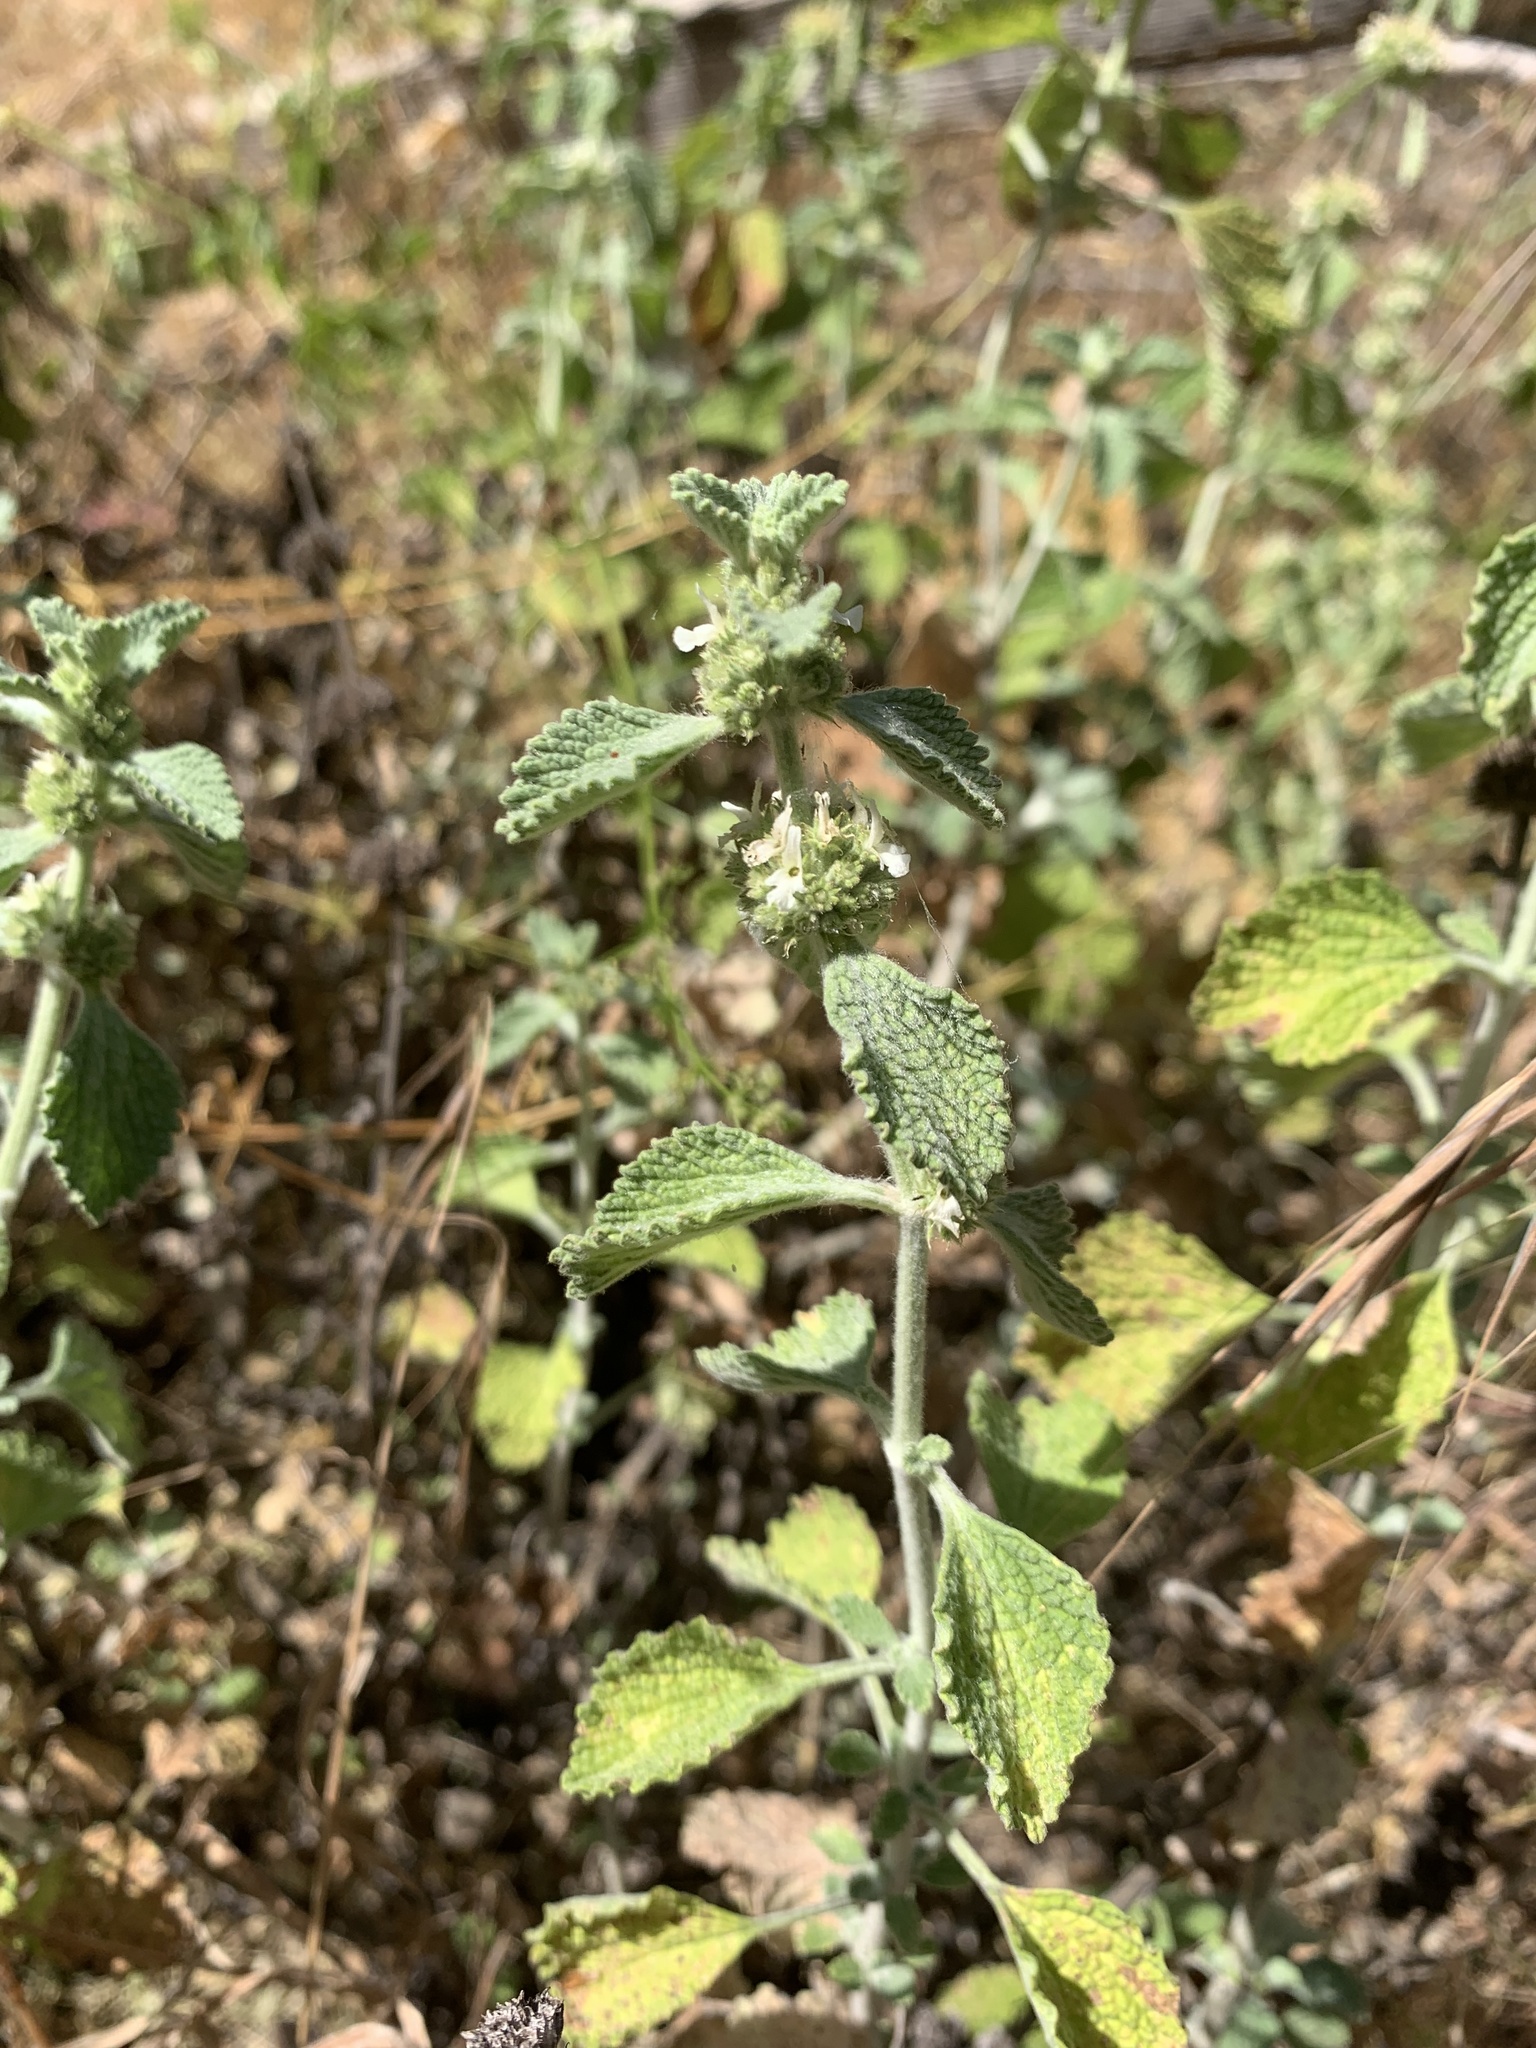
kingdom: Plantae
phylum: Tracheophyta
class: Magnoliopsida
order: Lamiales
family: Lamiaceae
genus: Marrubium
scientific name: Marrubium vulgare
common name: Horehound
